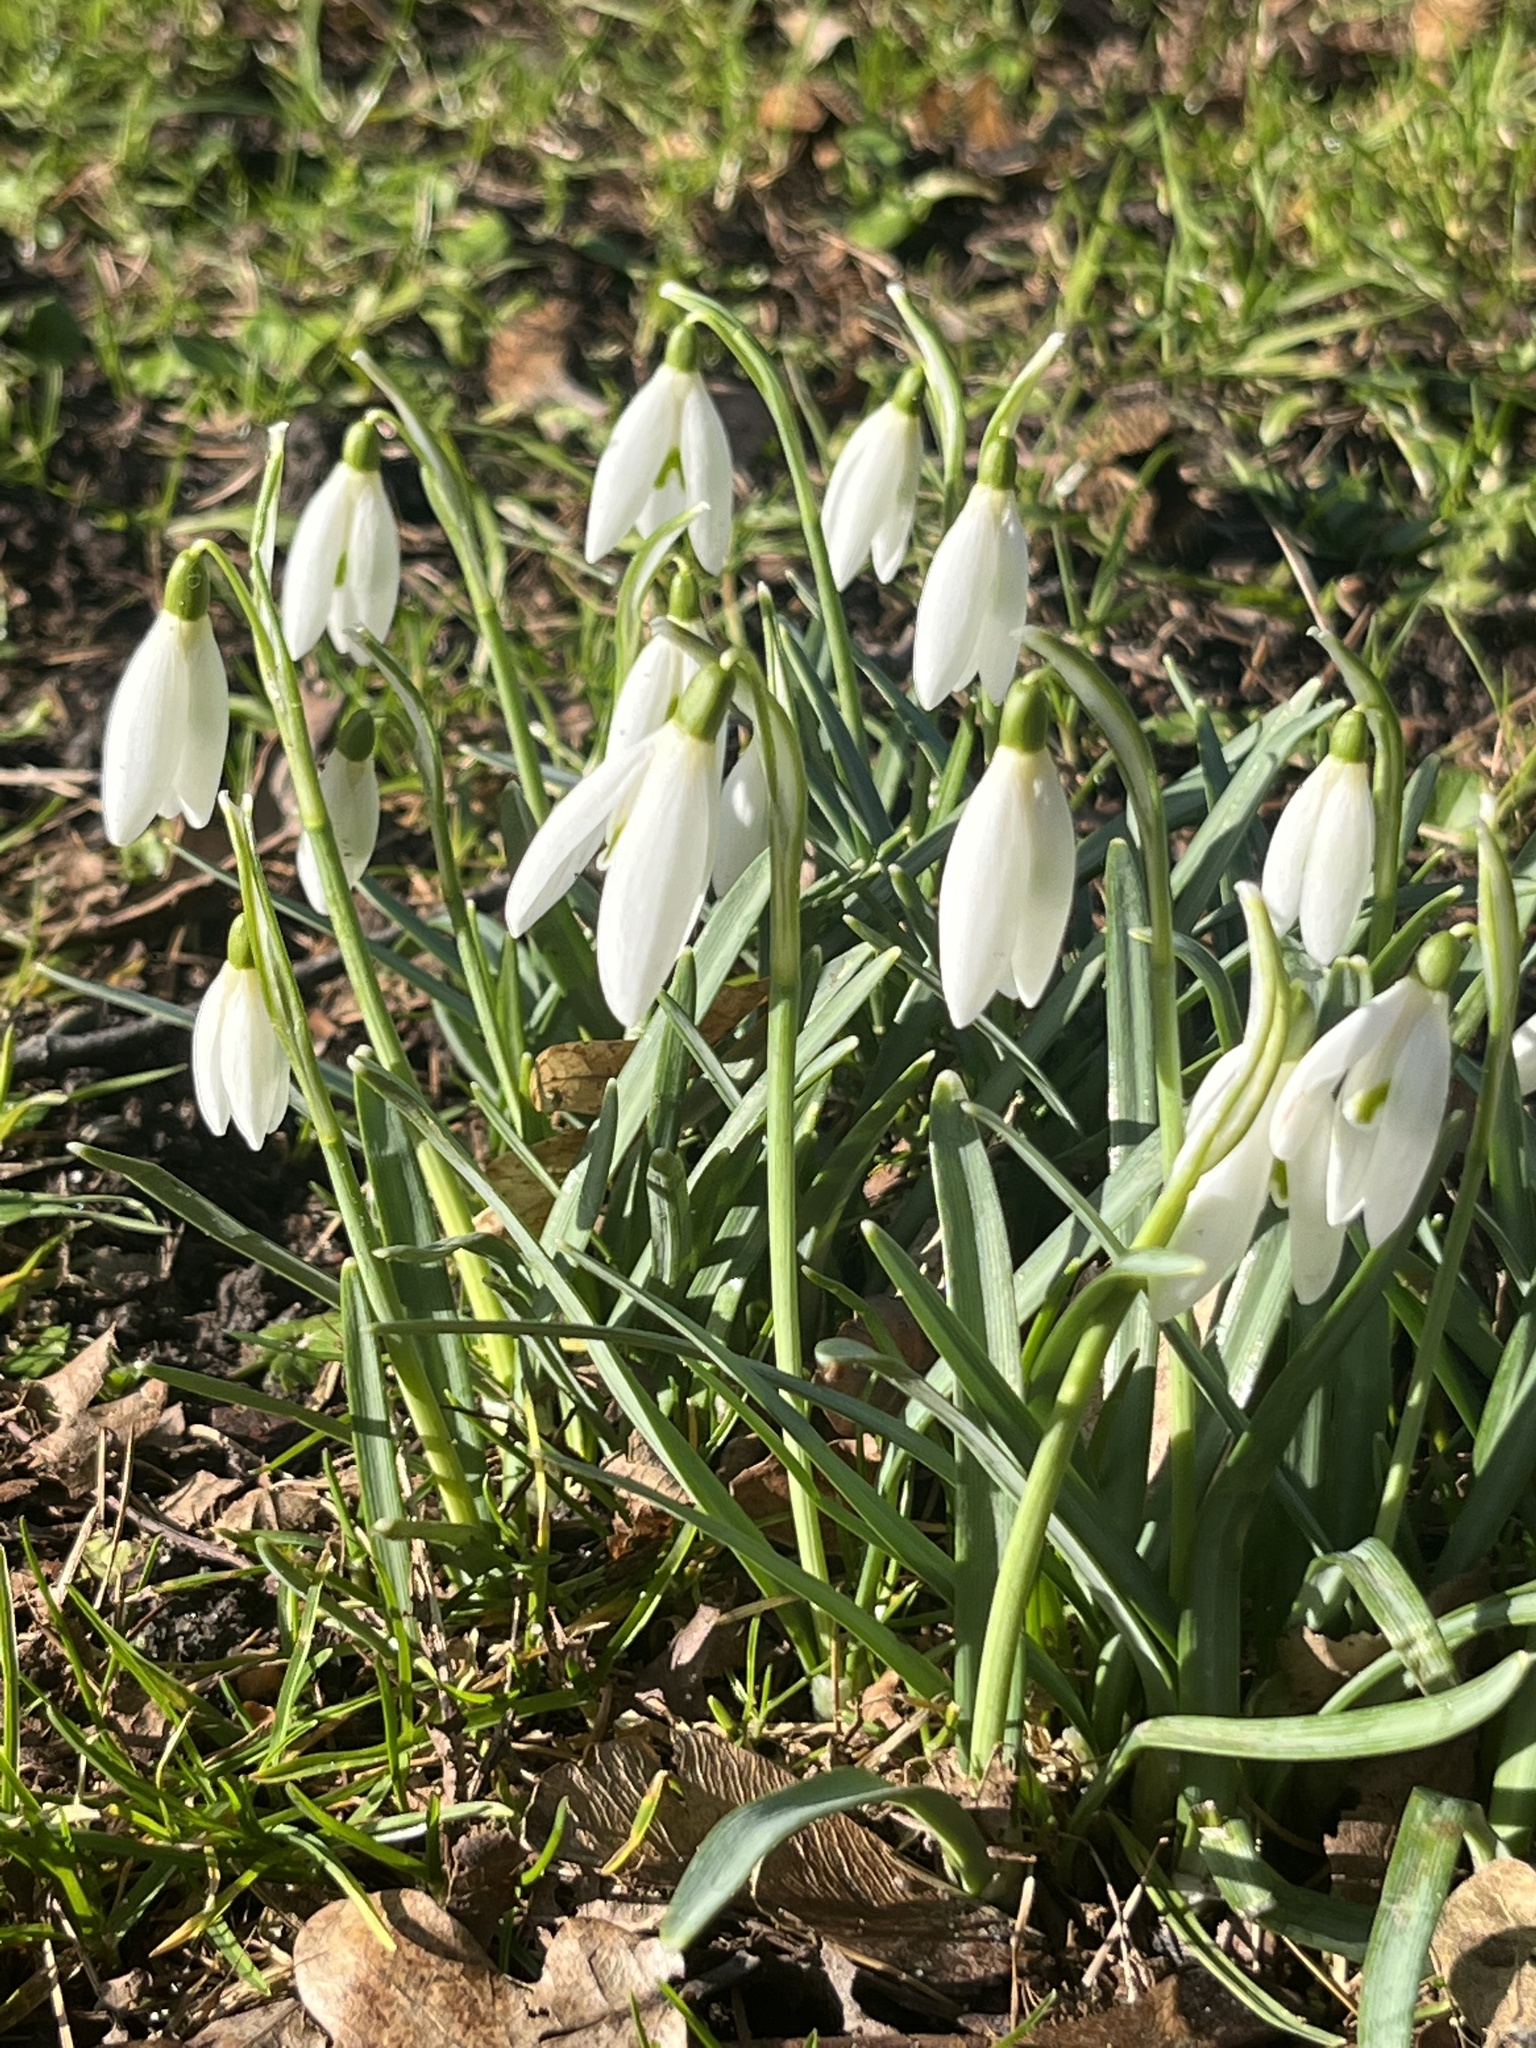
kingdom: Plantae
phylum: Tracheophyta
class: Liliopsida
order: Asparagales
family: Amaryllidaceae
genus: Galanthus
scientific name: Galanthus nivalis
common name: Snowdrop
